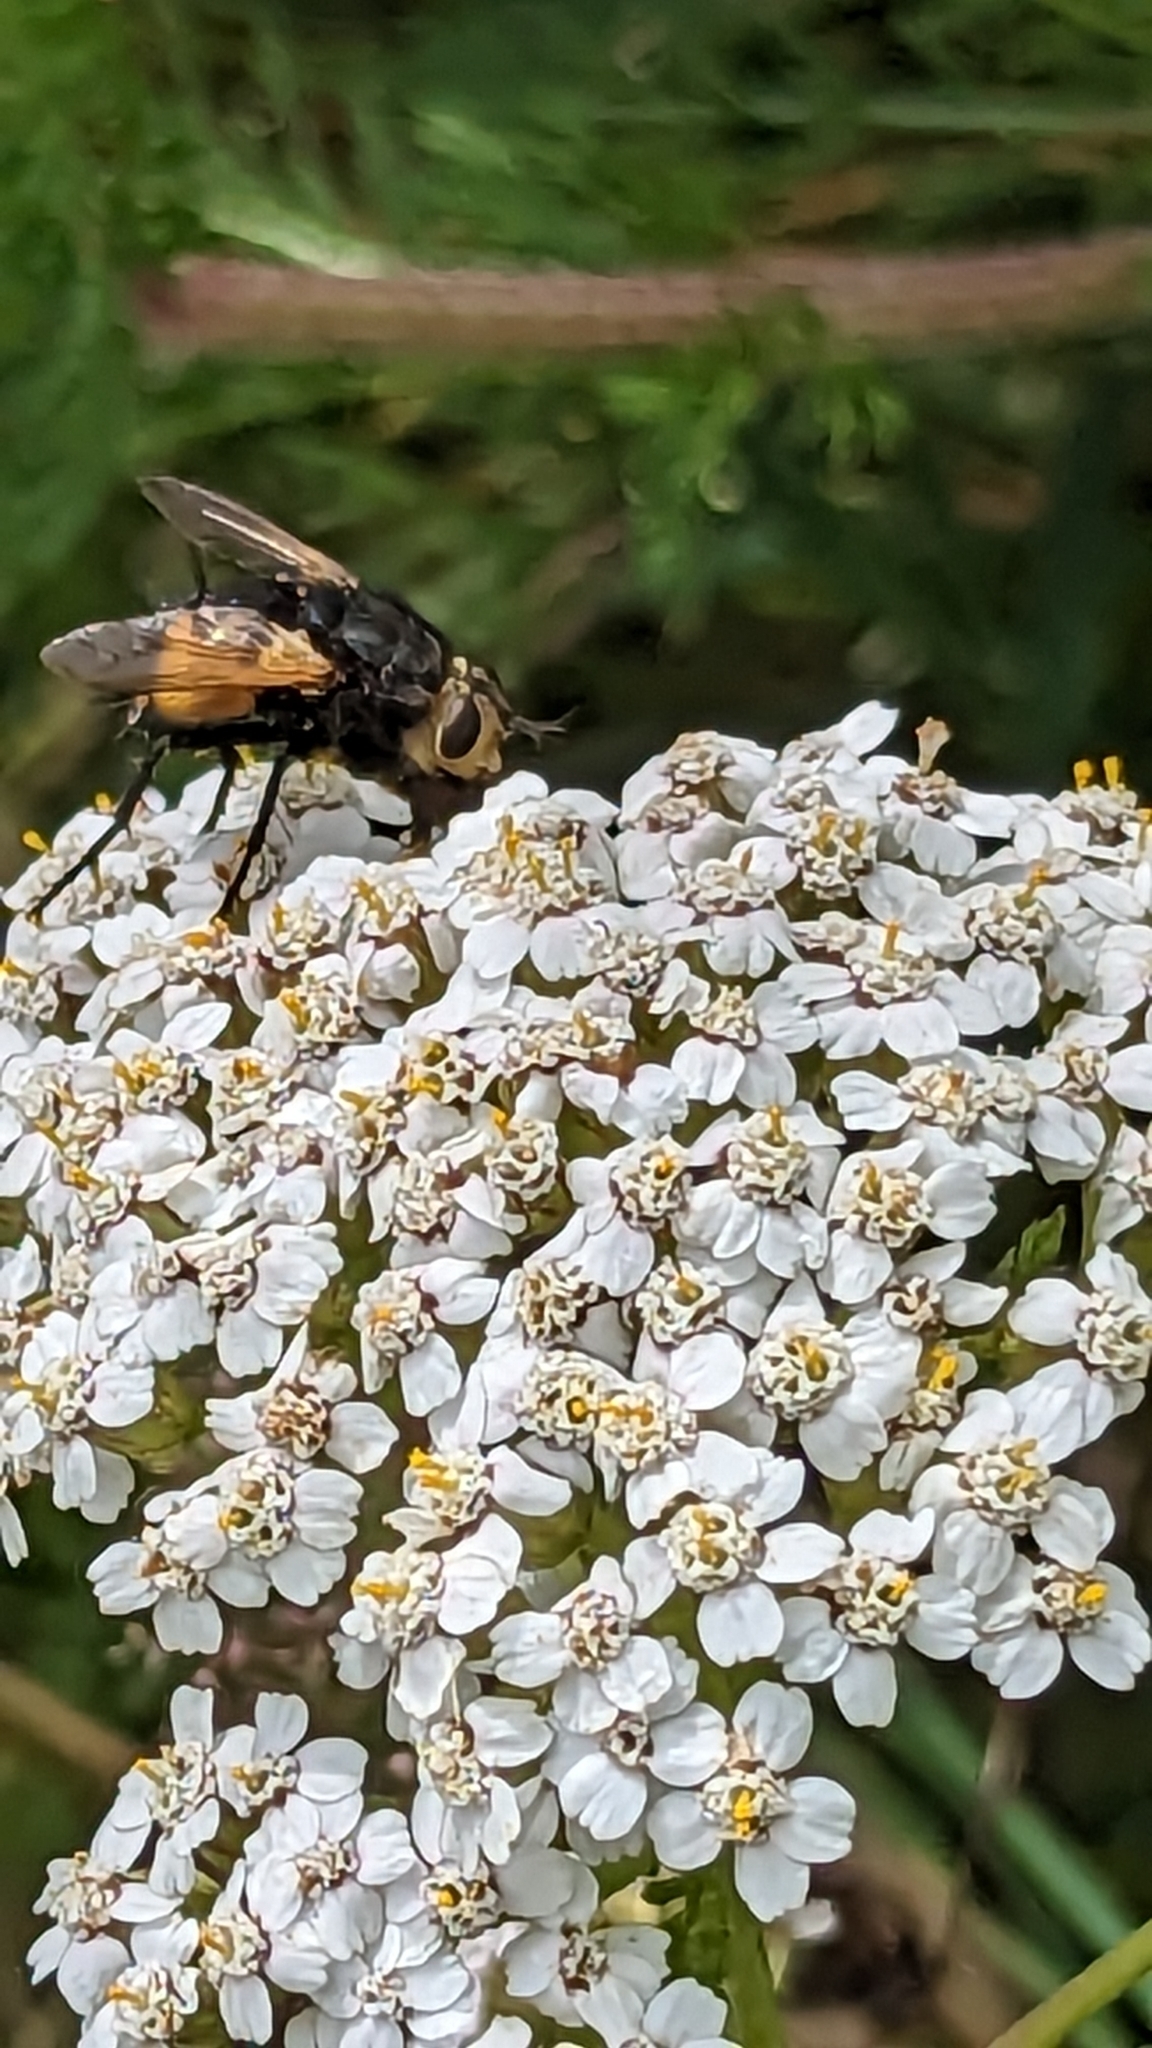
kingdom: Animalia
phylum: Arthropoda
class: Insecta
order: Diptera
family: Tachinidae
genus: Nowickia
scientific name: Nowickia ferox
